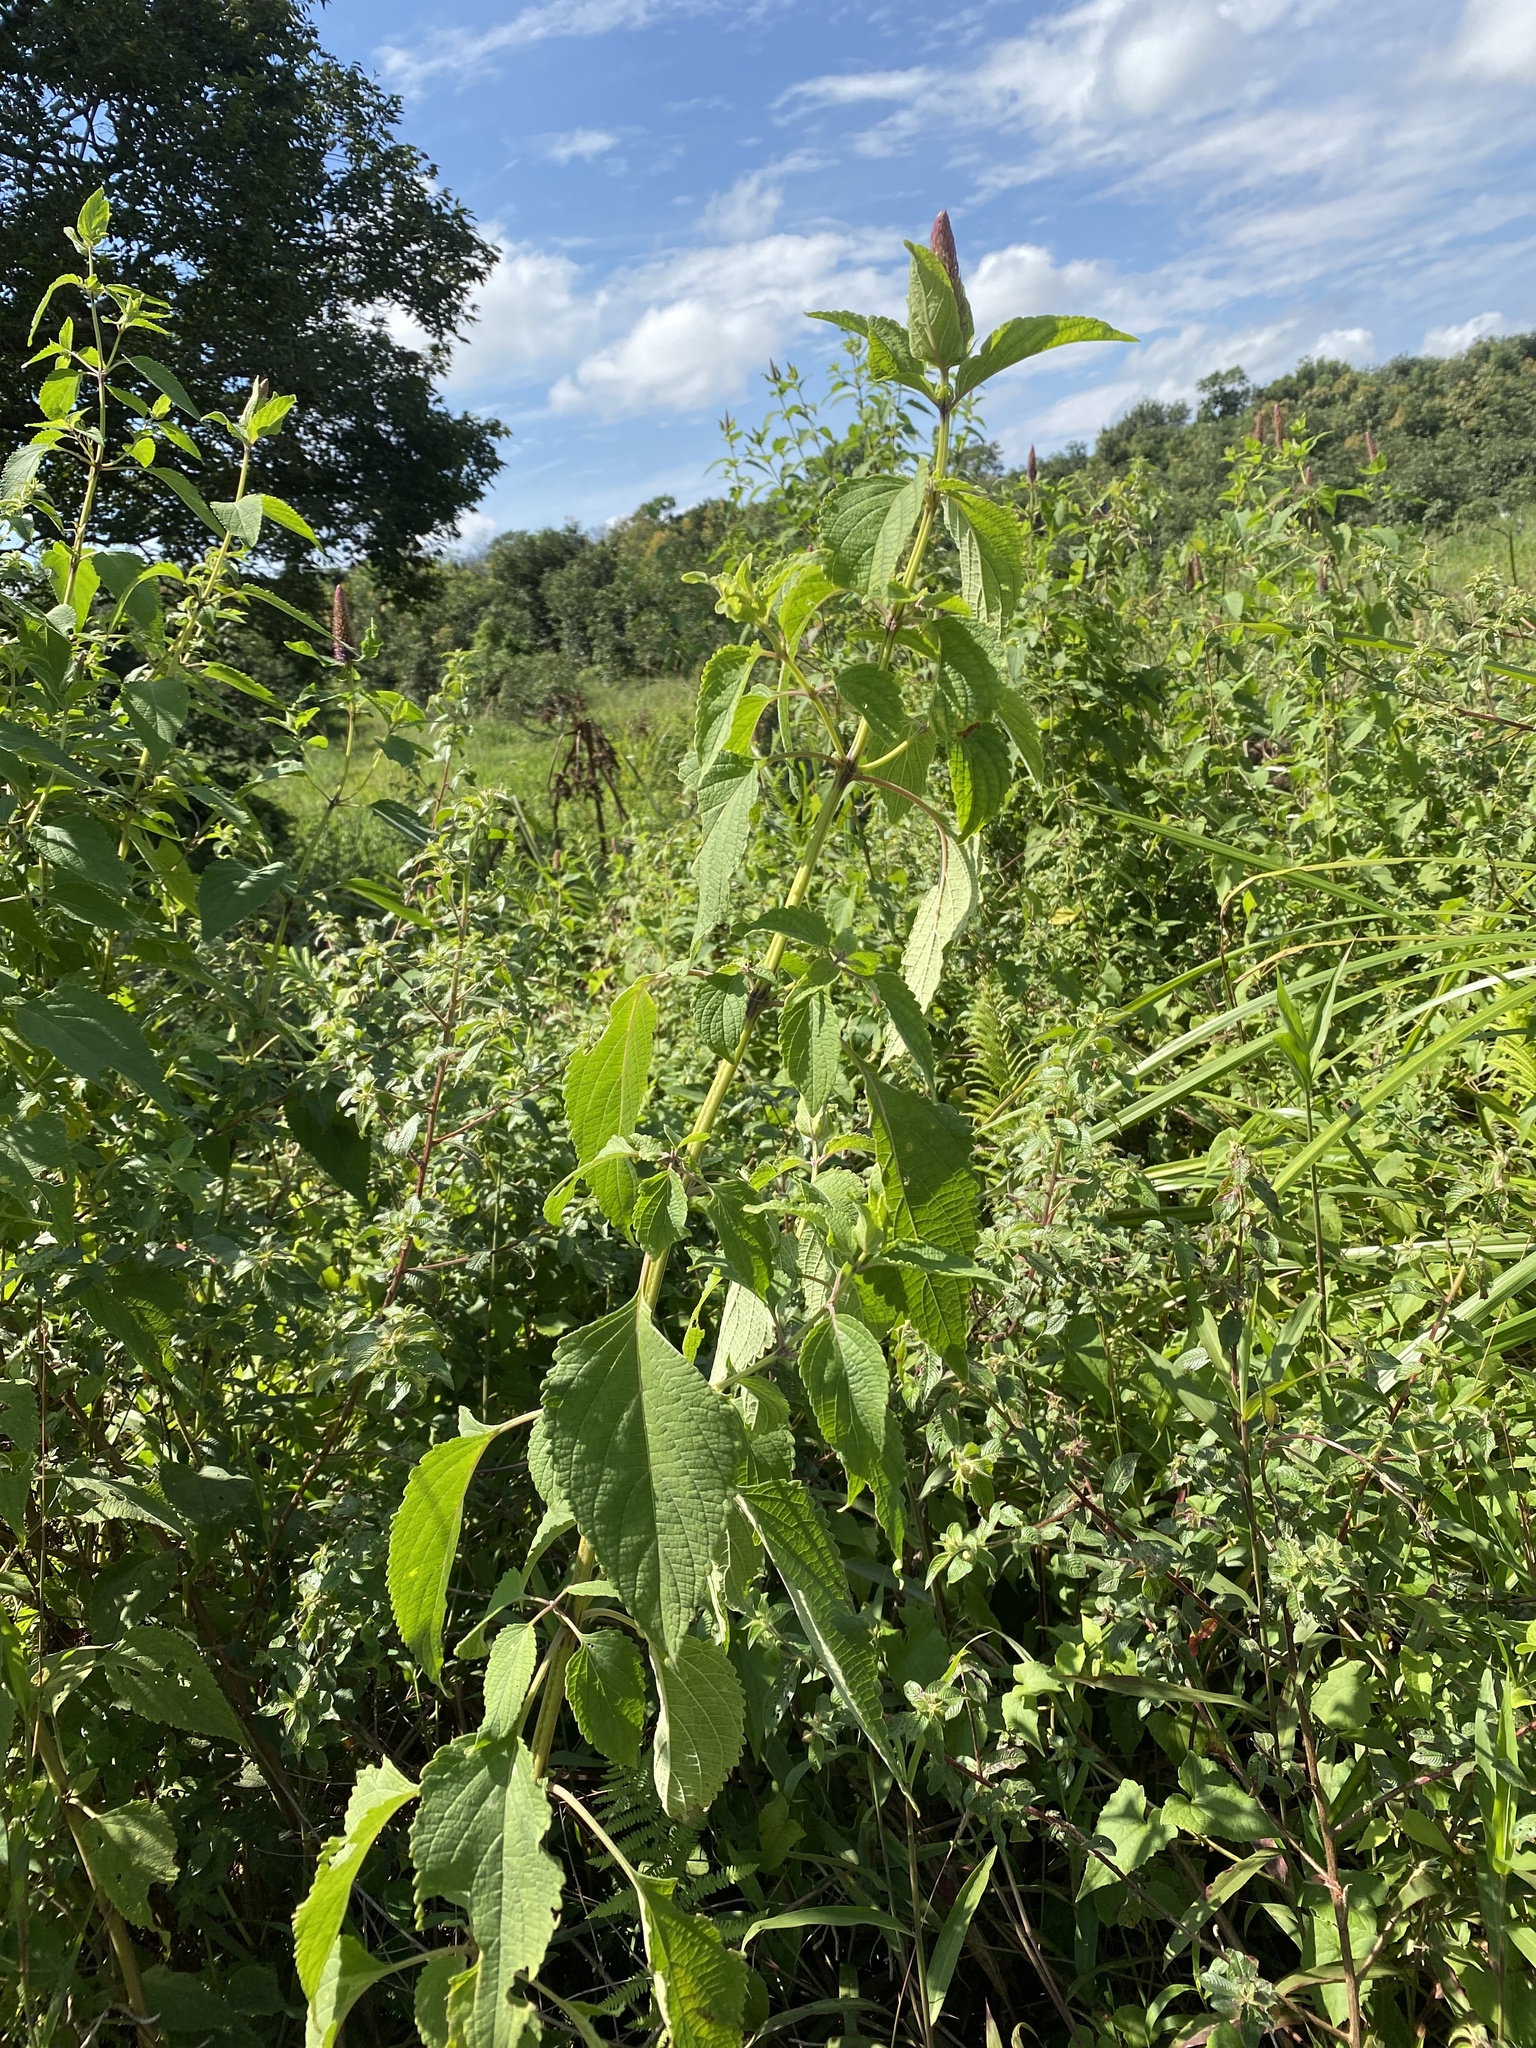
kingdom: Plantae
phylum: Tracheophyta
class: Magnoliopsida
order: Lamiales
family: Lamiaceae
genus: Coleus
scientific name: Coleus livingstonei
